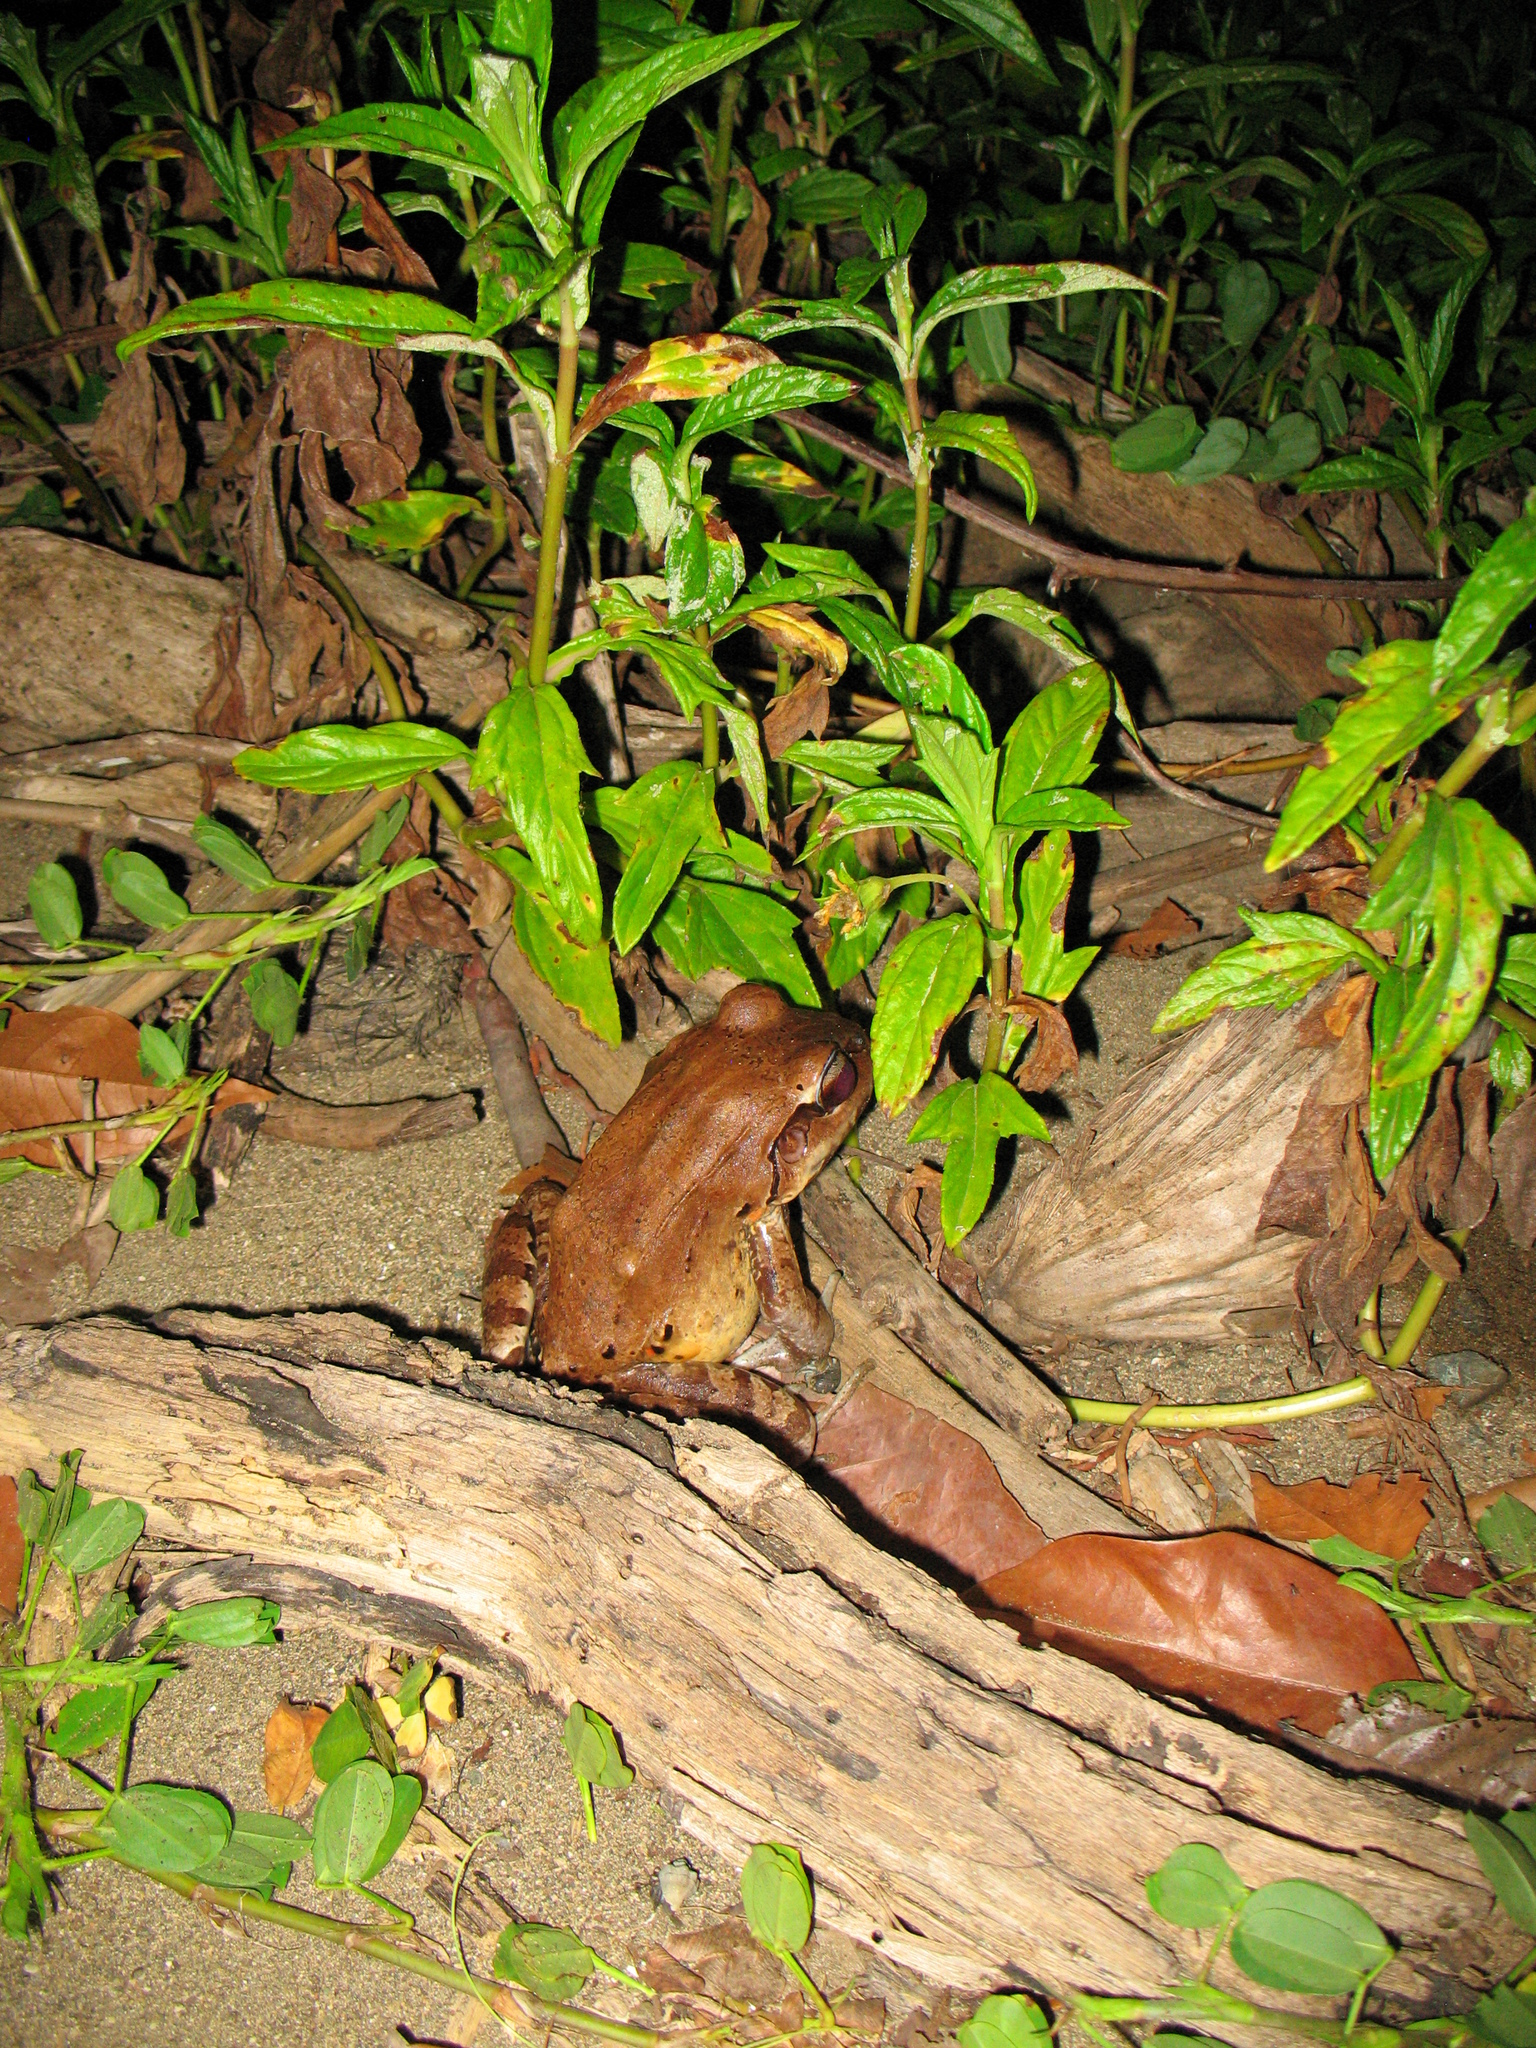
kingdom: Animalia
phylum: Chordata
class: Amphibia
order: Anura
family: Leptodactylidae
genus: Leptodactylus
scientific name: Leptodactylus savagei
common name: Savage's thin-toed frog
